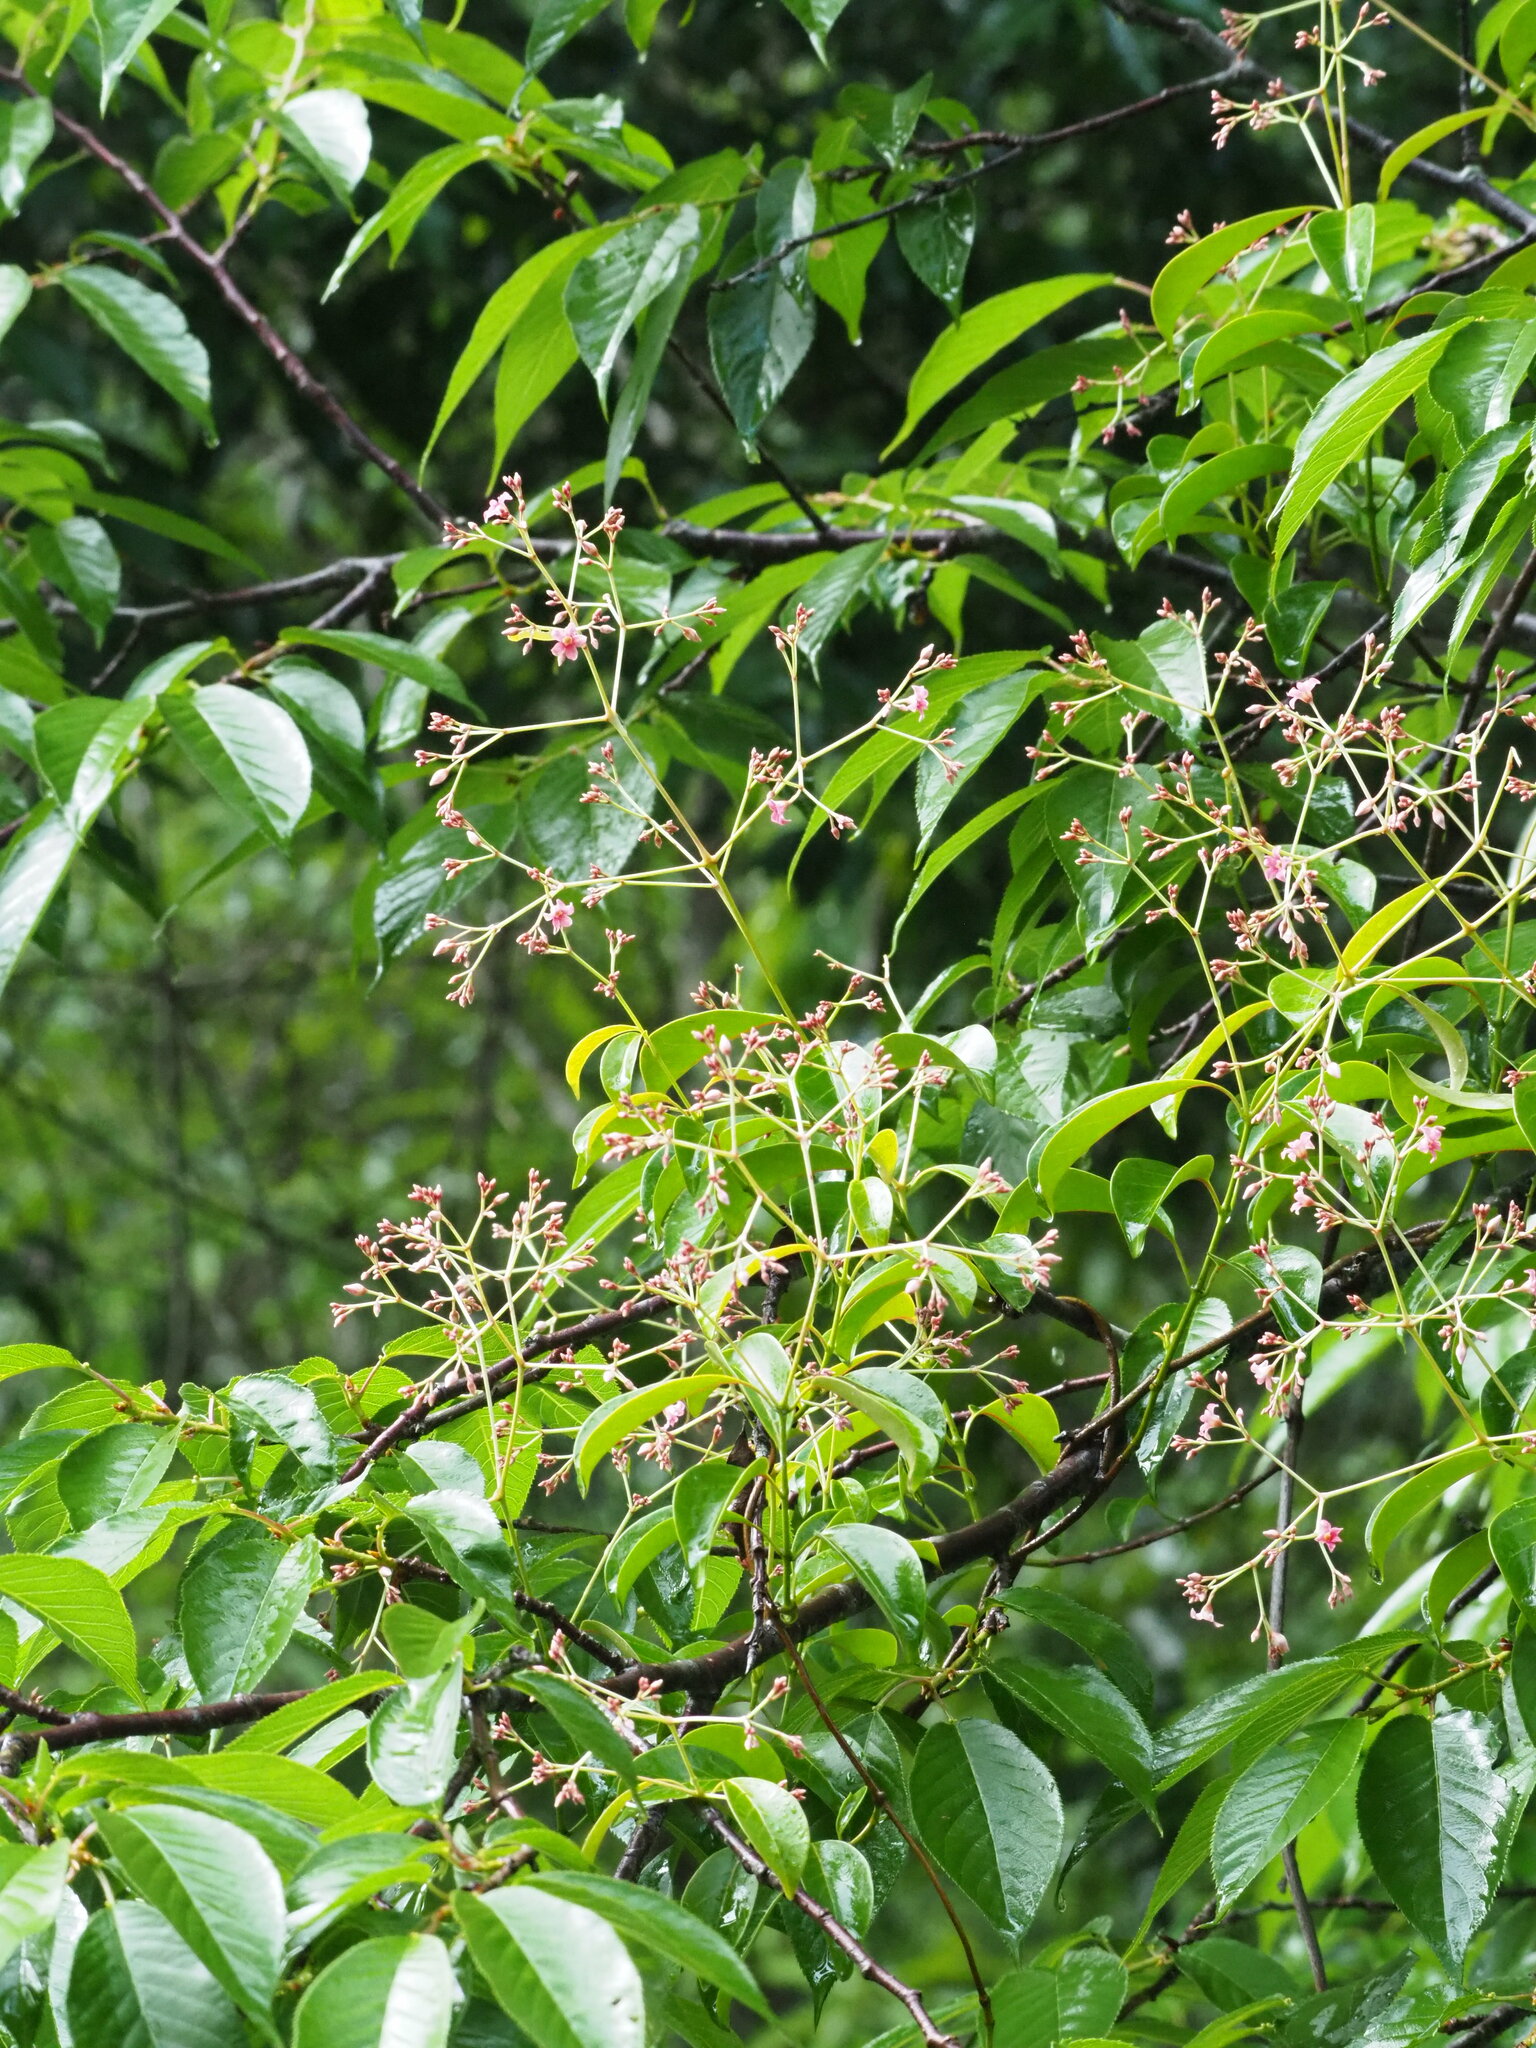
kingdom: Plantae
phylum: Tracheophyta
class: Magnoliopsida
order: Gentianales
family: Apocynaceae
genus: Urceola
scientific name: Urceola rosea
